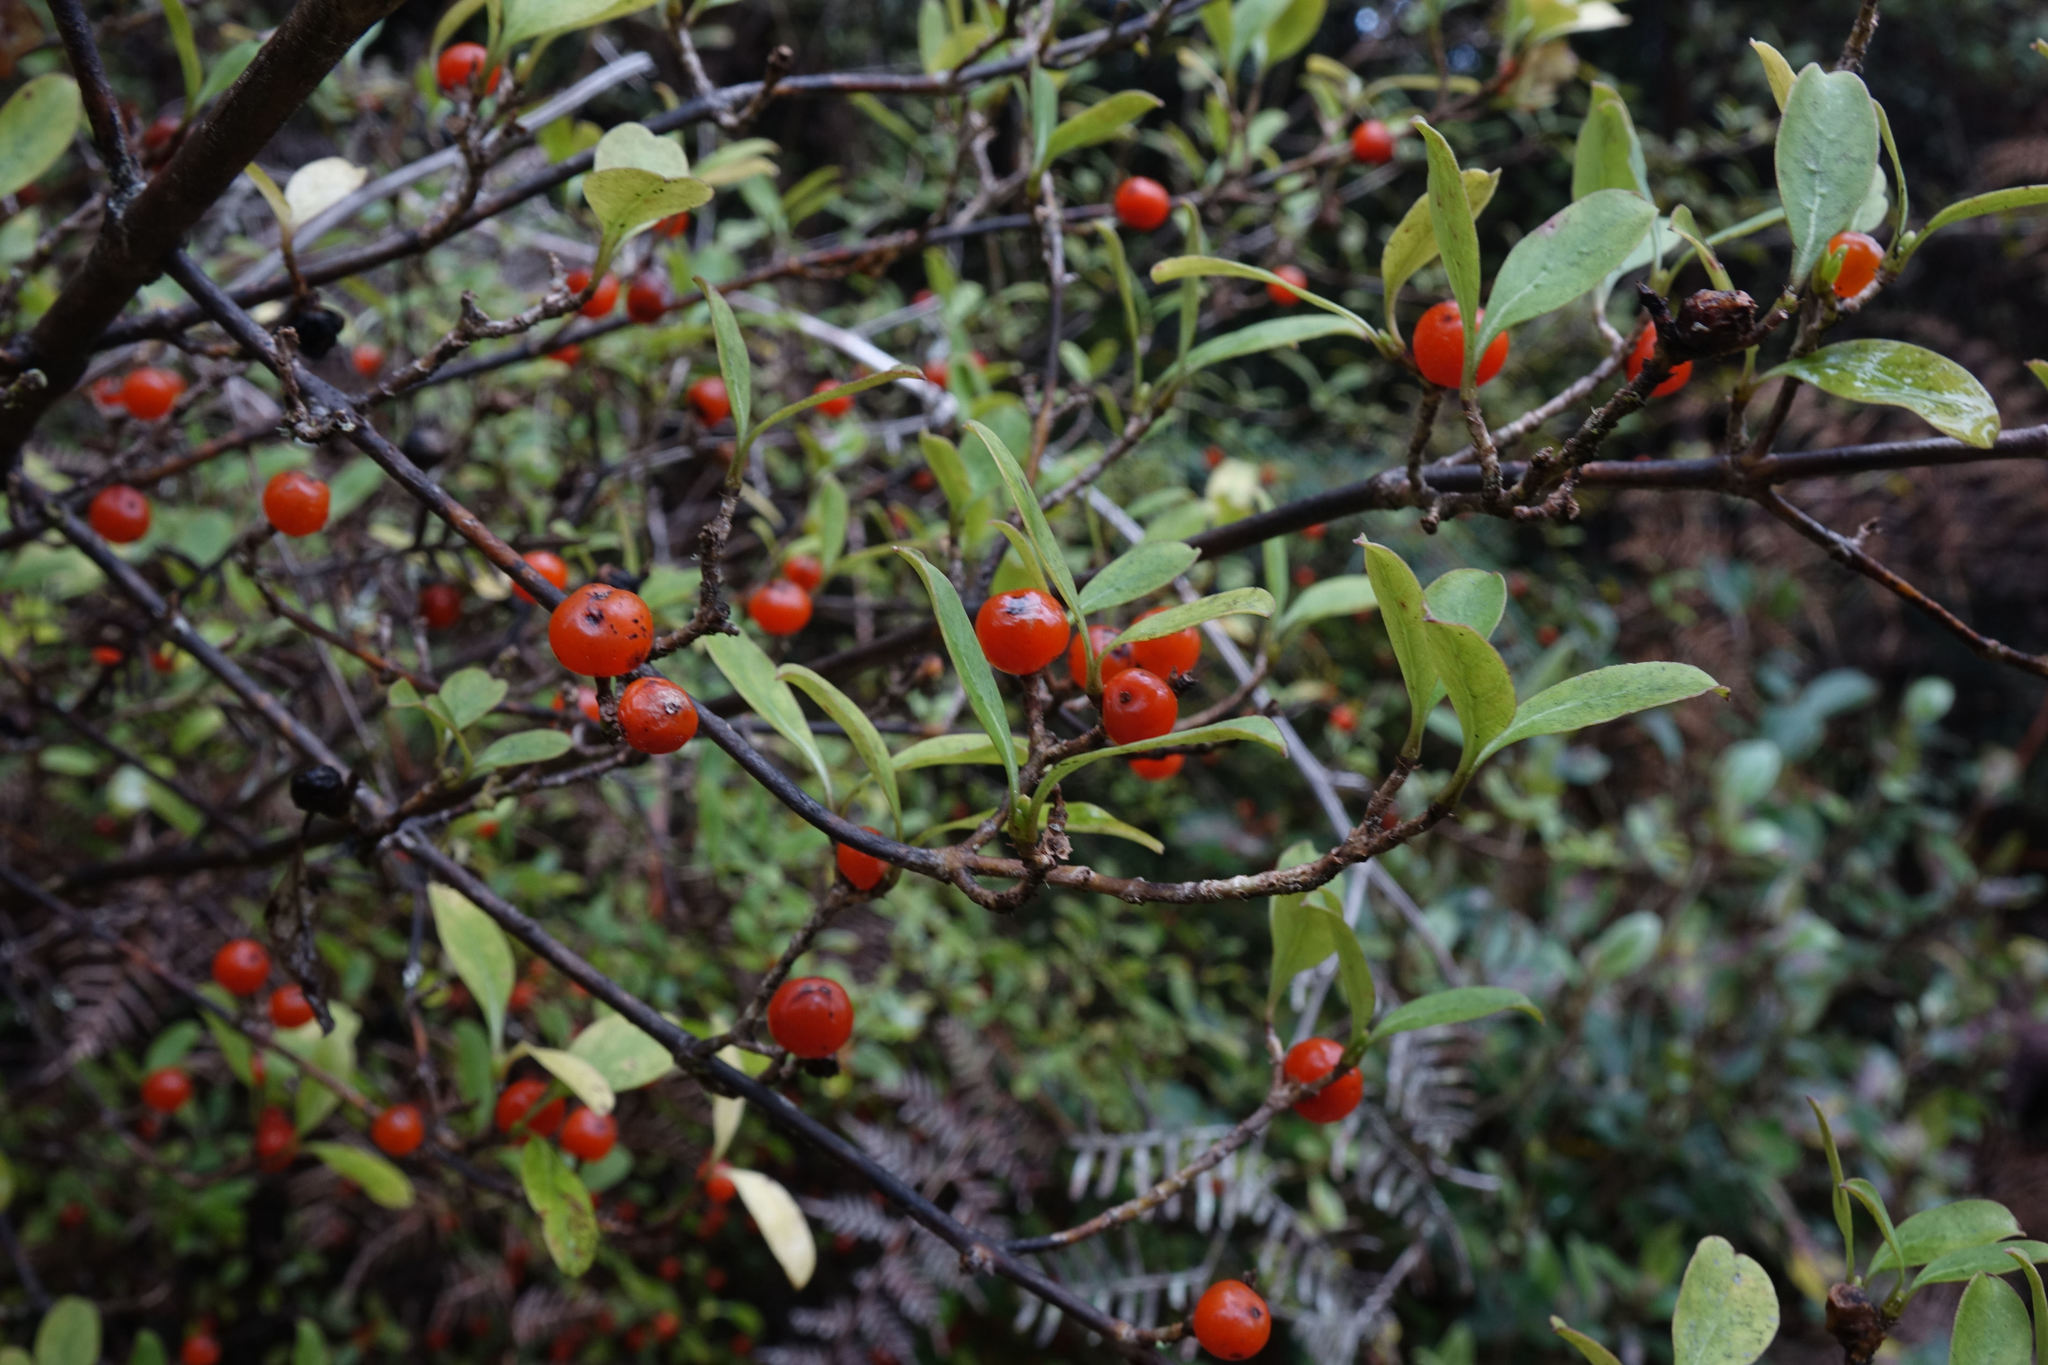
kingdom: Plantae
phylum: Tracheophyta
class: Magnoliopsida
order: Gentianales
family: Rubiaceae
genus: Coprosma
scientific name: Coprosma foetidissima
